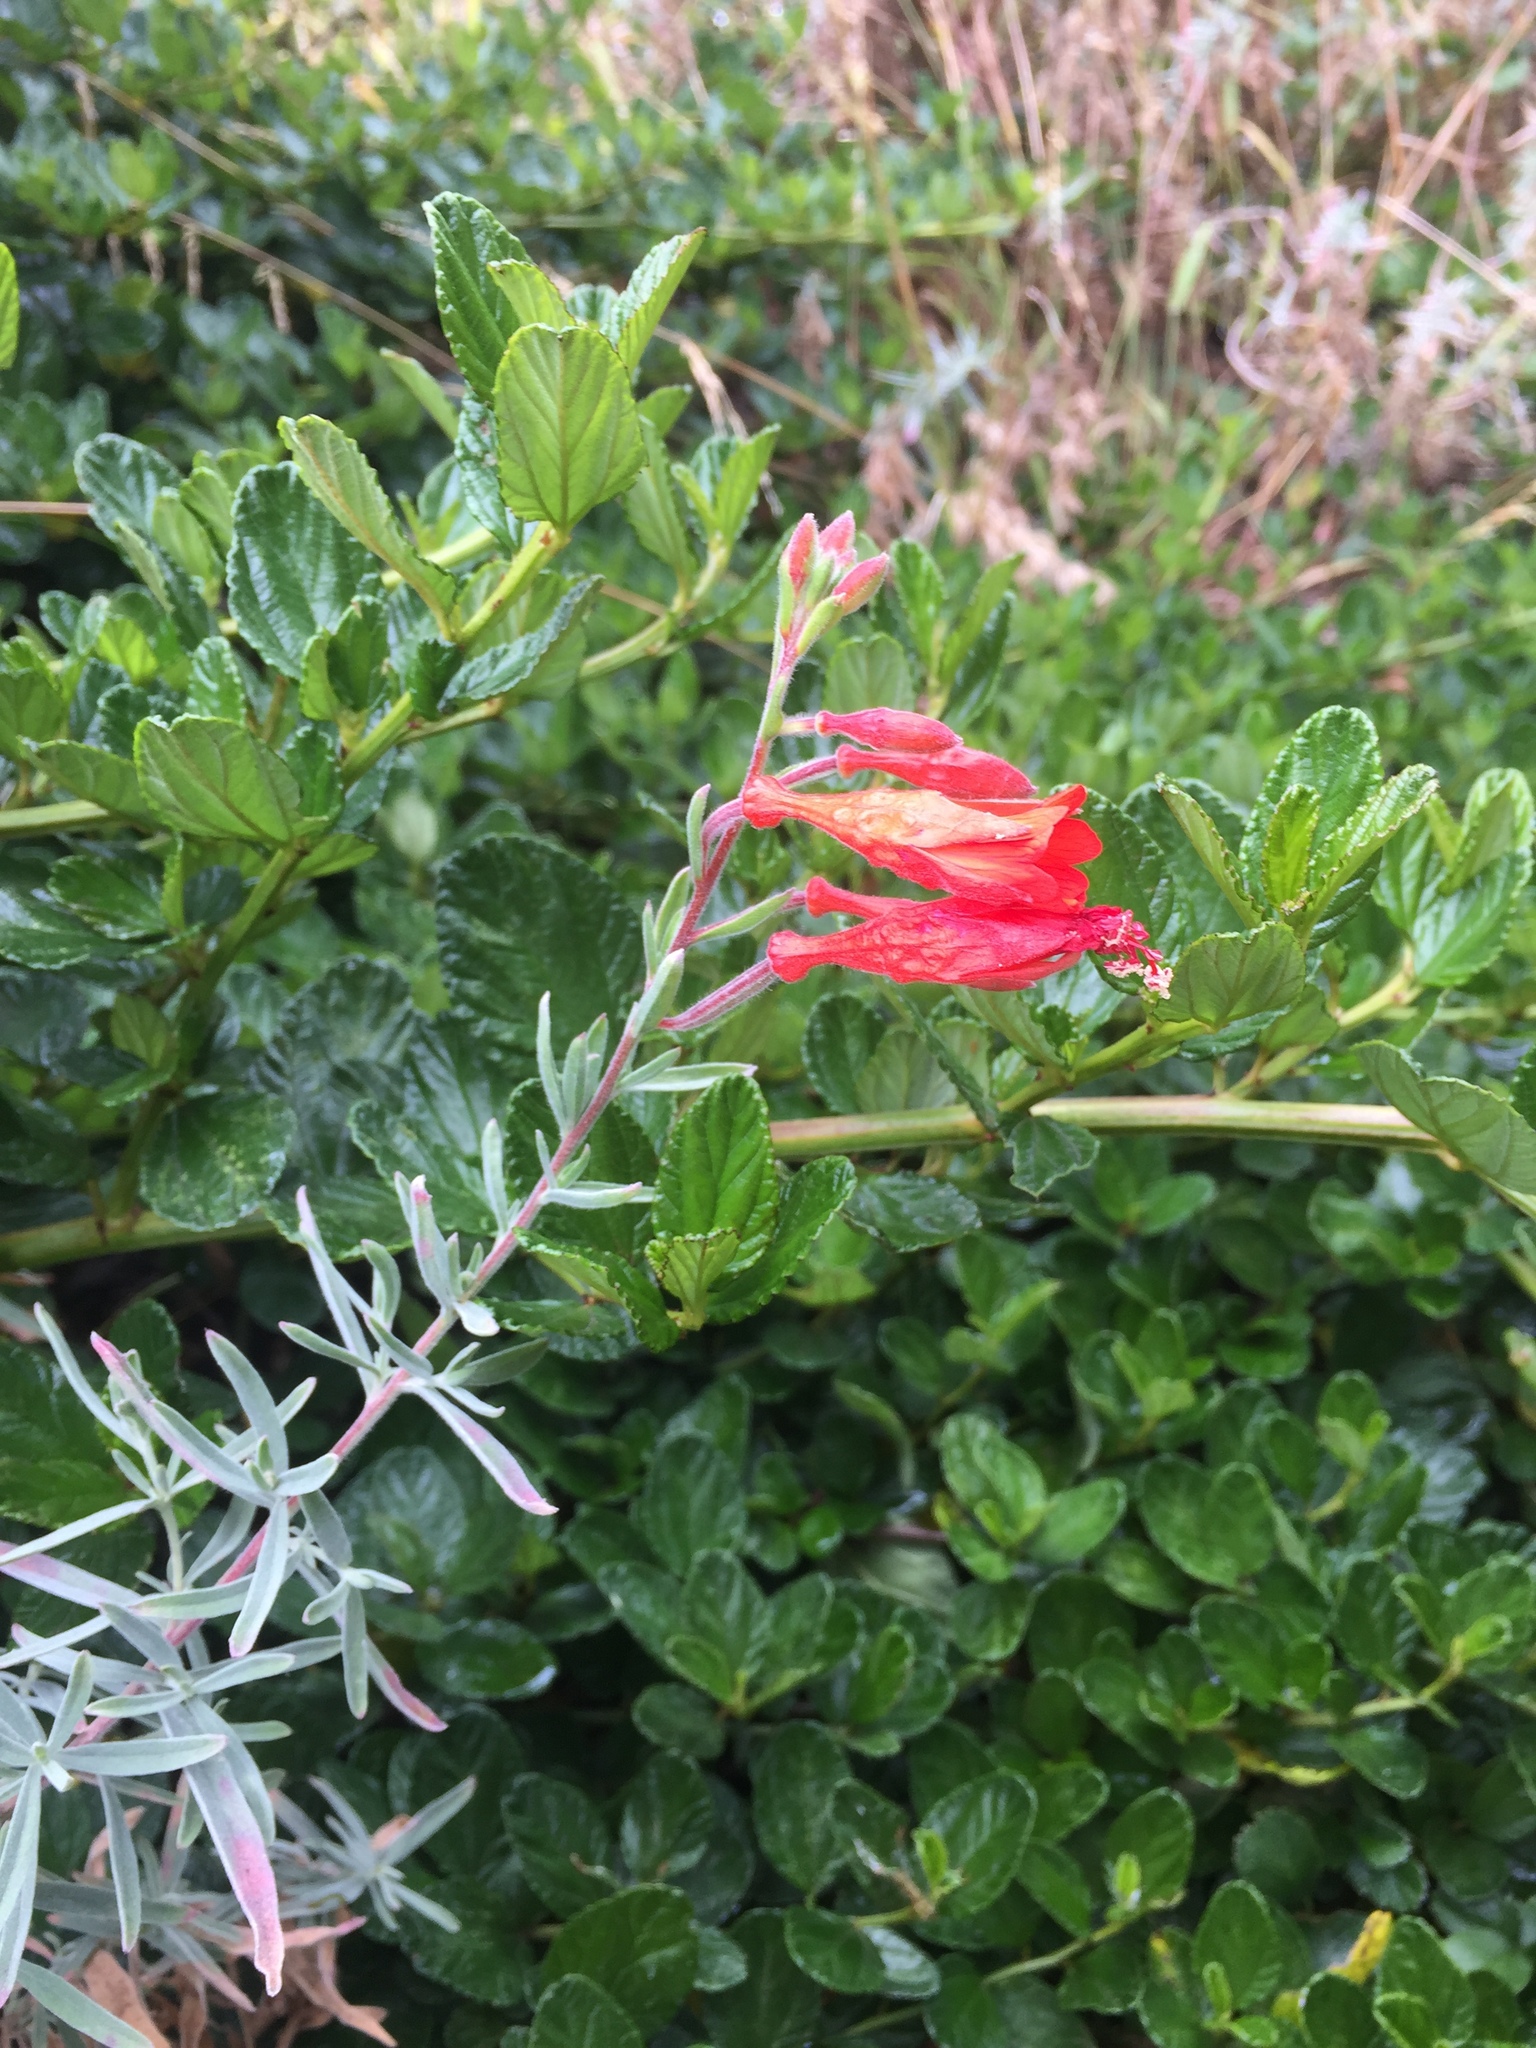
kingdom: Plantae
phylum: Tracheophyta
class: Magnoliopsida
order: Myrtales
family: Onagraceae
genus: Epilobium
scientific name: Epilobium canum
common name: California-fuchsia
